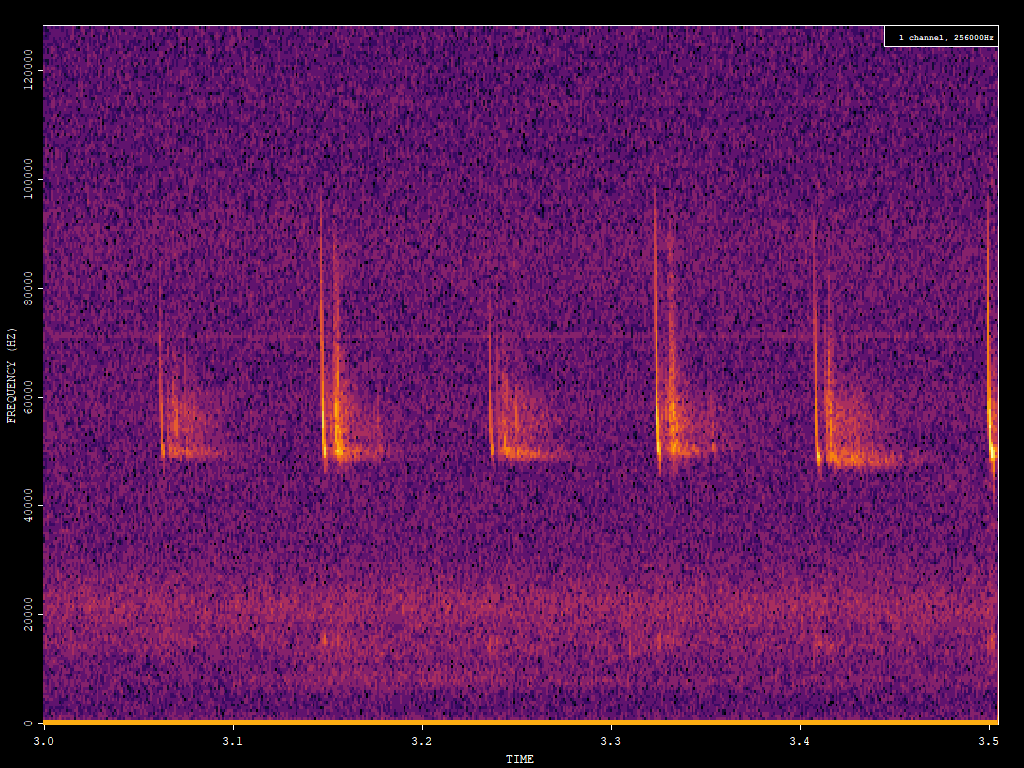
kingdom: Animalia
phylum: Chordata
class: Mammalia
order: Chiroptera
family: Vespertilionidae
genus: Pipistrellus
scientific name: Pipistrellus pipistrellus
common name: Common pipistrelle
